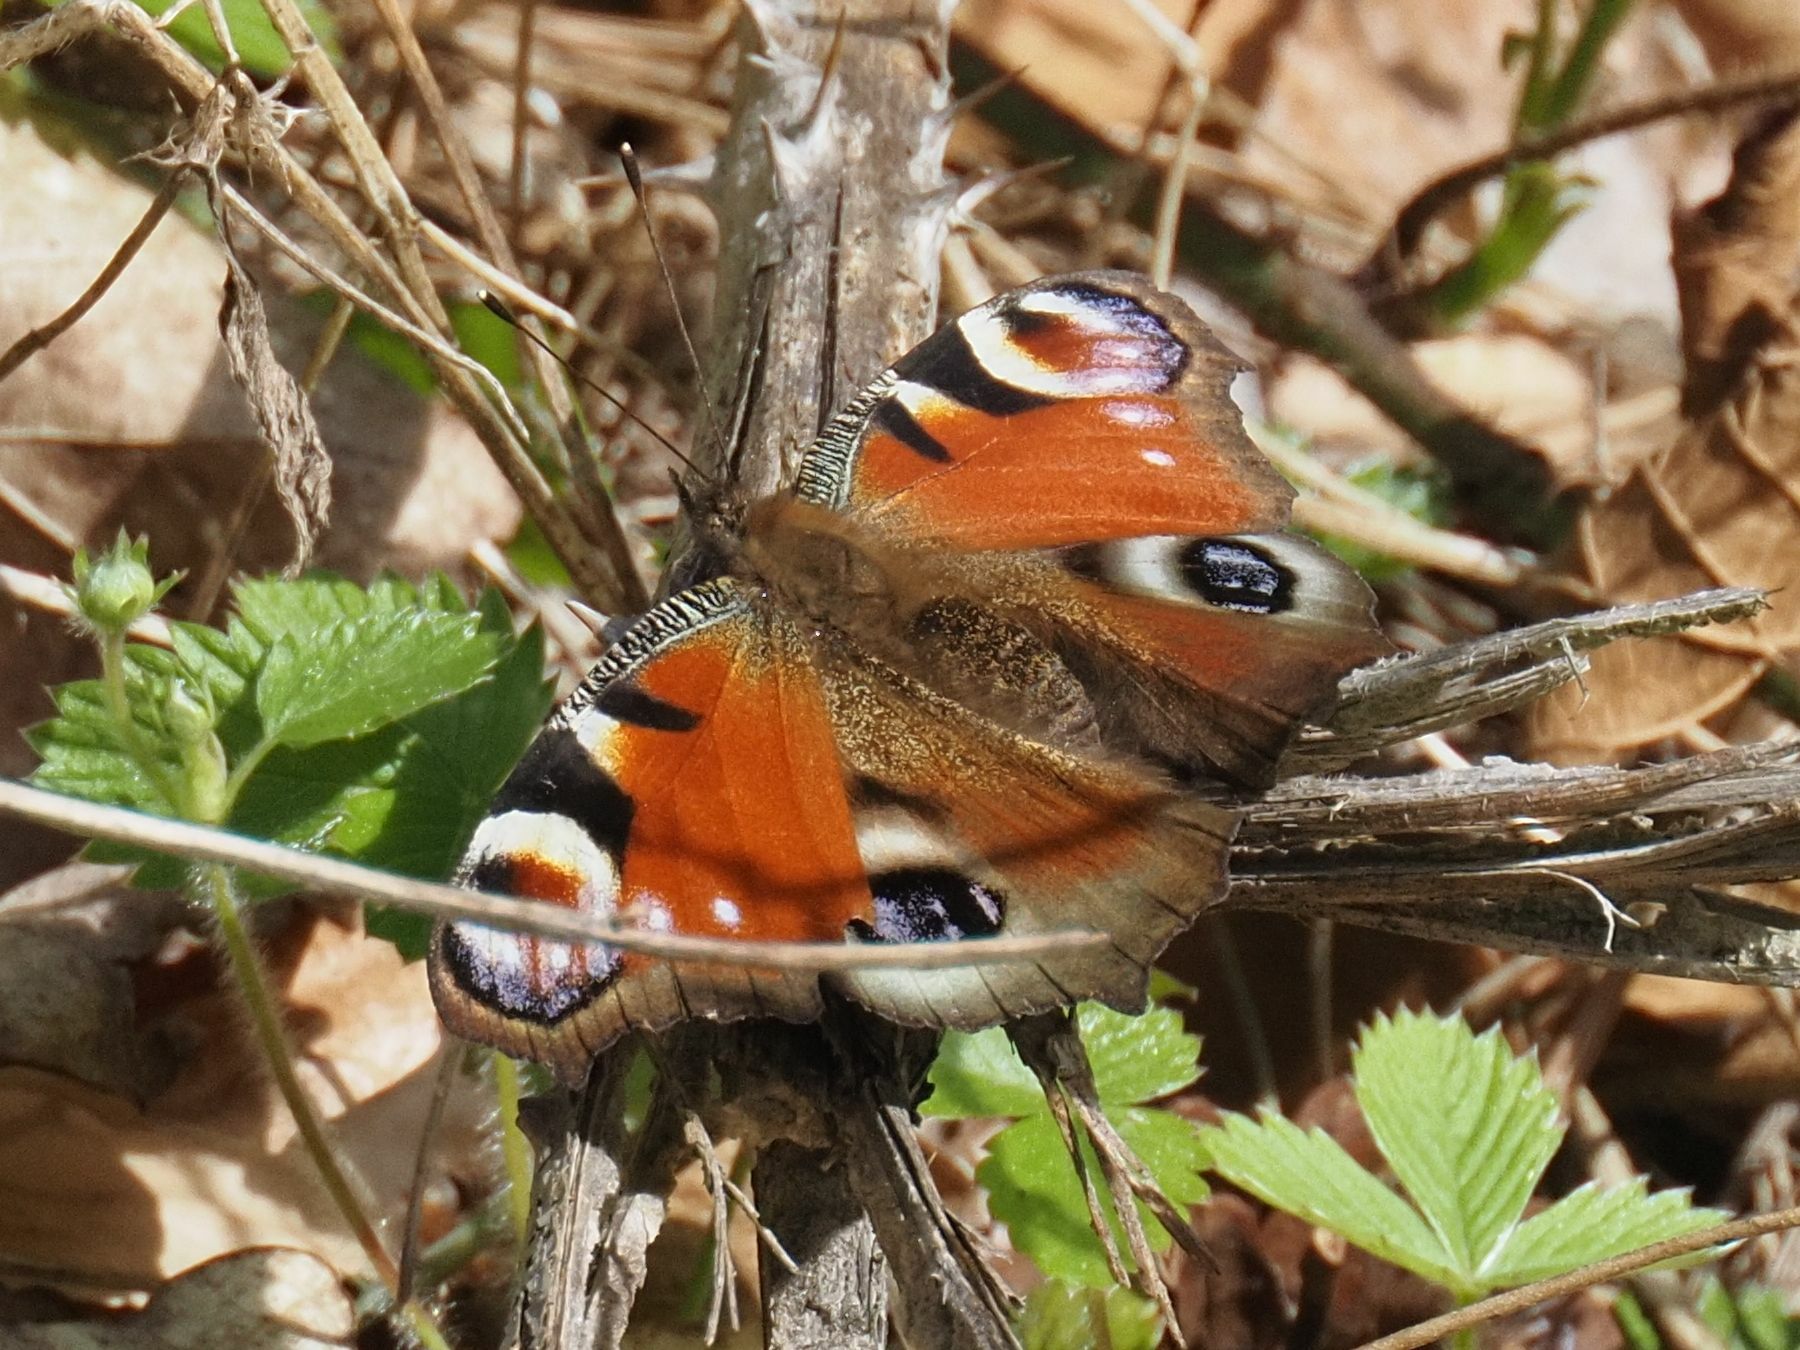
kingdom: Animalia
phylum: Arthropoda
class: Insecta
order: Lepidoptera
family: Nymphalidae
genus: Aglais
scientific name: Aglais io
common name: Peacock
